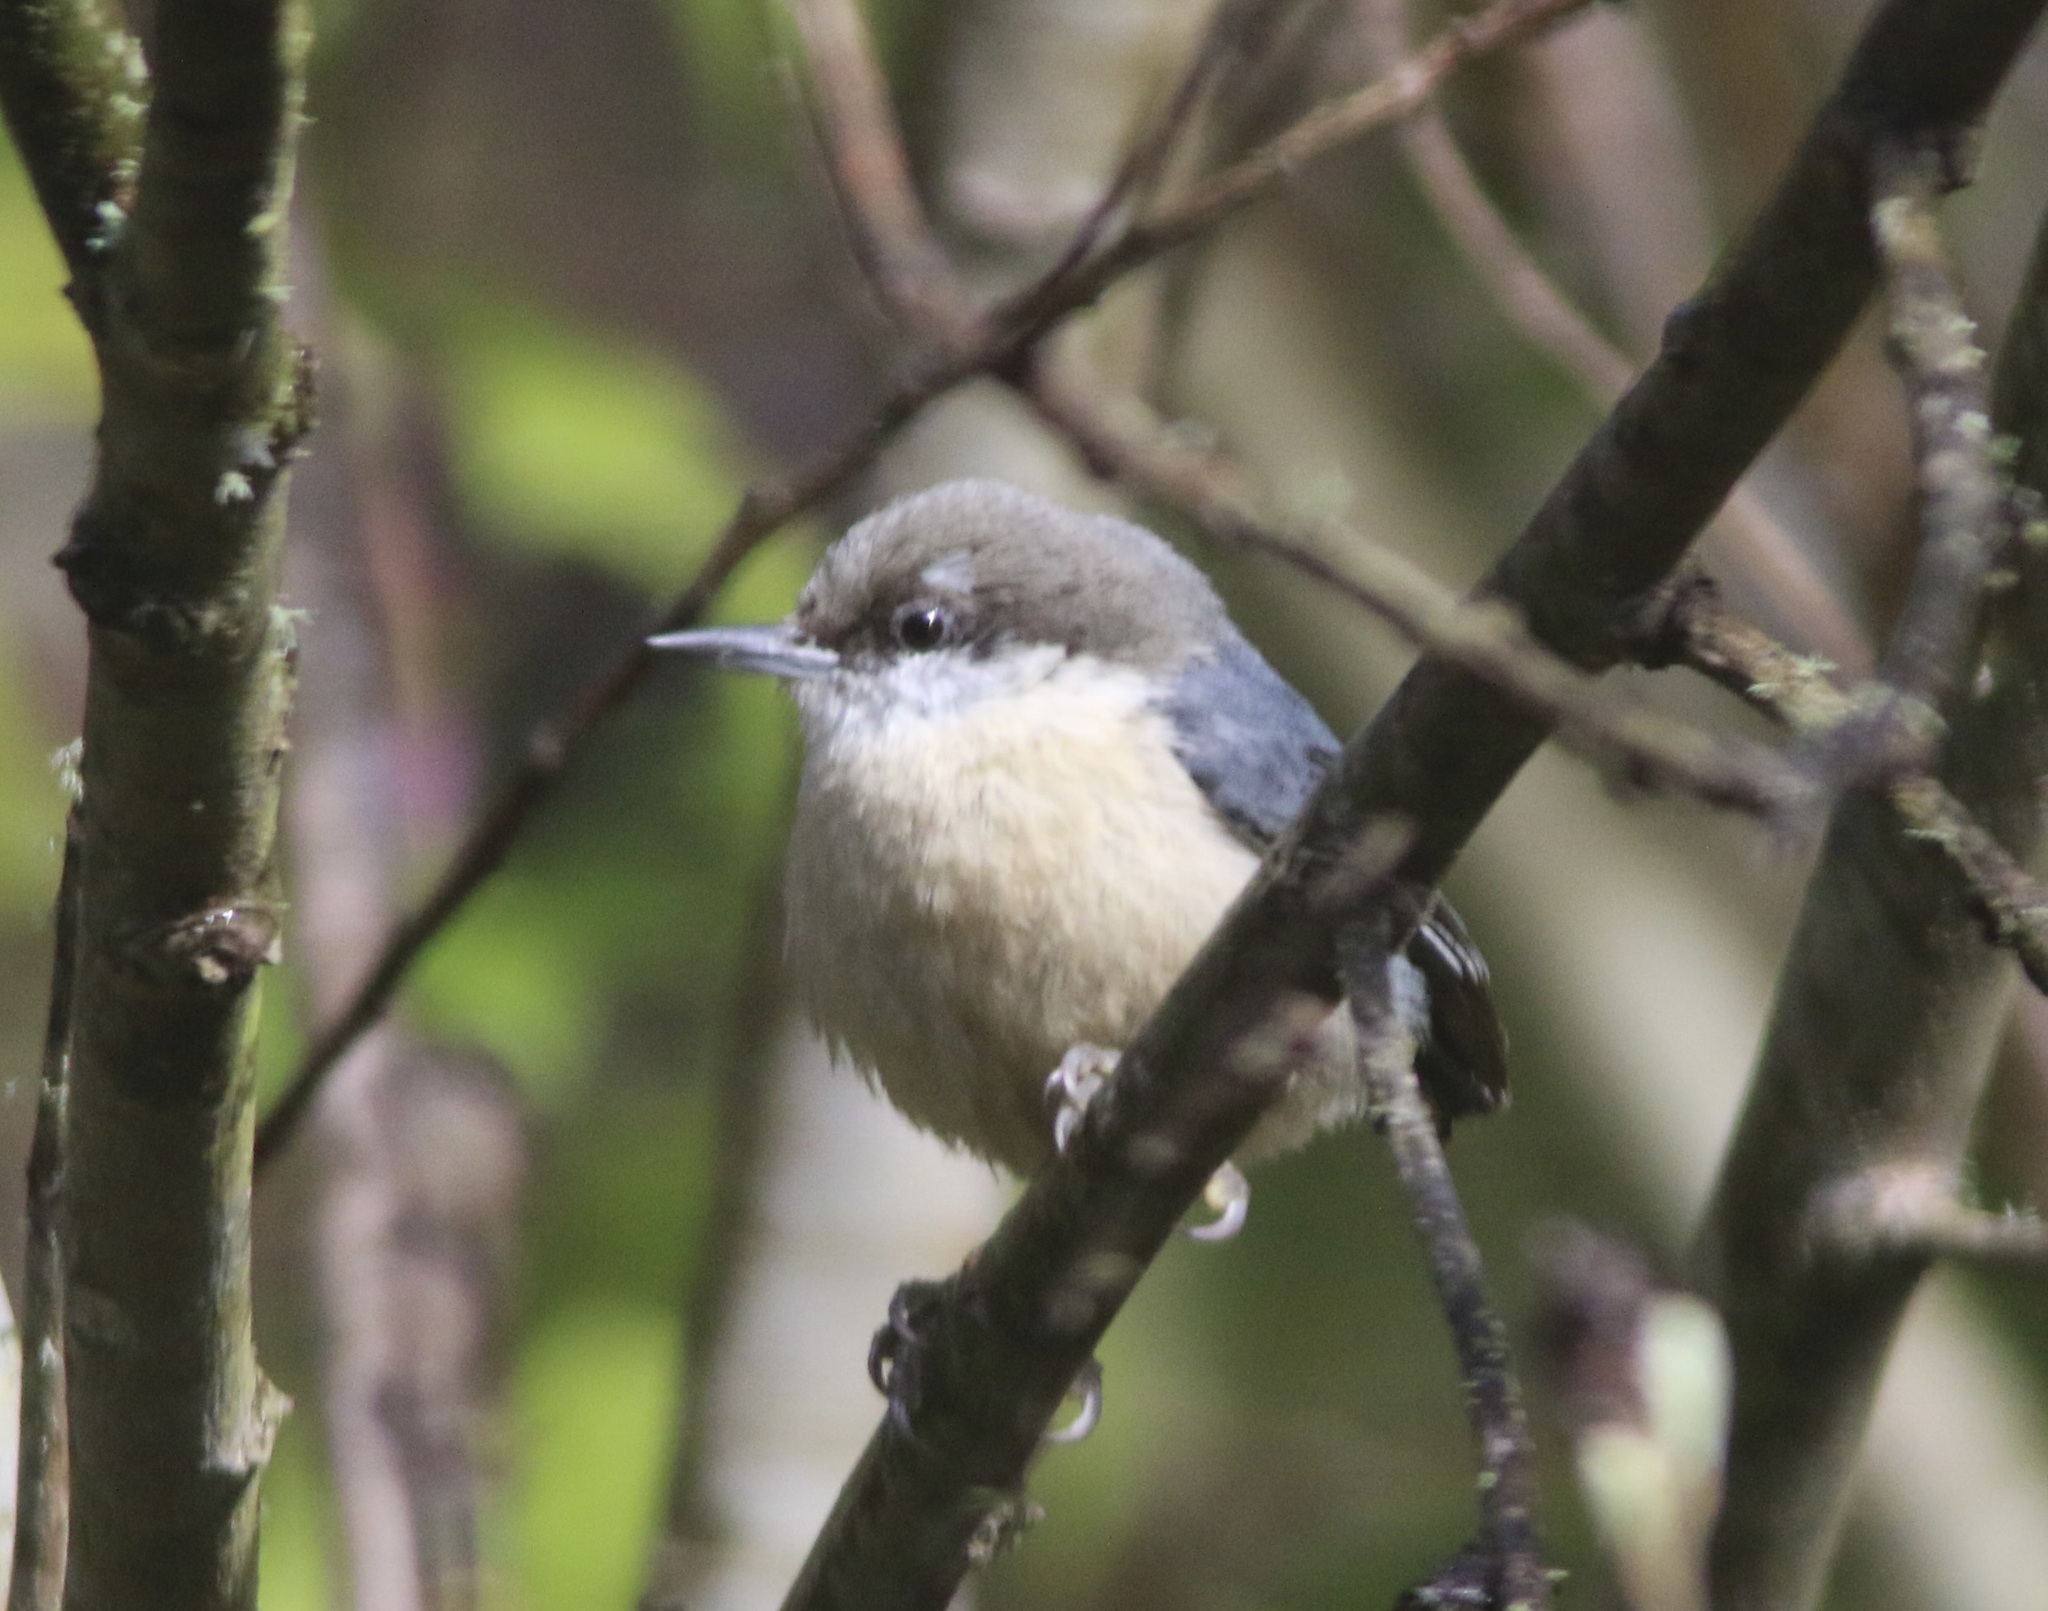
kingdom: Animalia
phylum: Chordata
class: Aves
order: Passeriformes
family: Sittidae
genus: Sitta
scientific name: Sitta pygmaea
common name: Pygmy nuthatch
